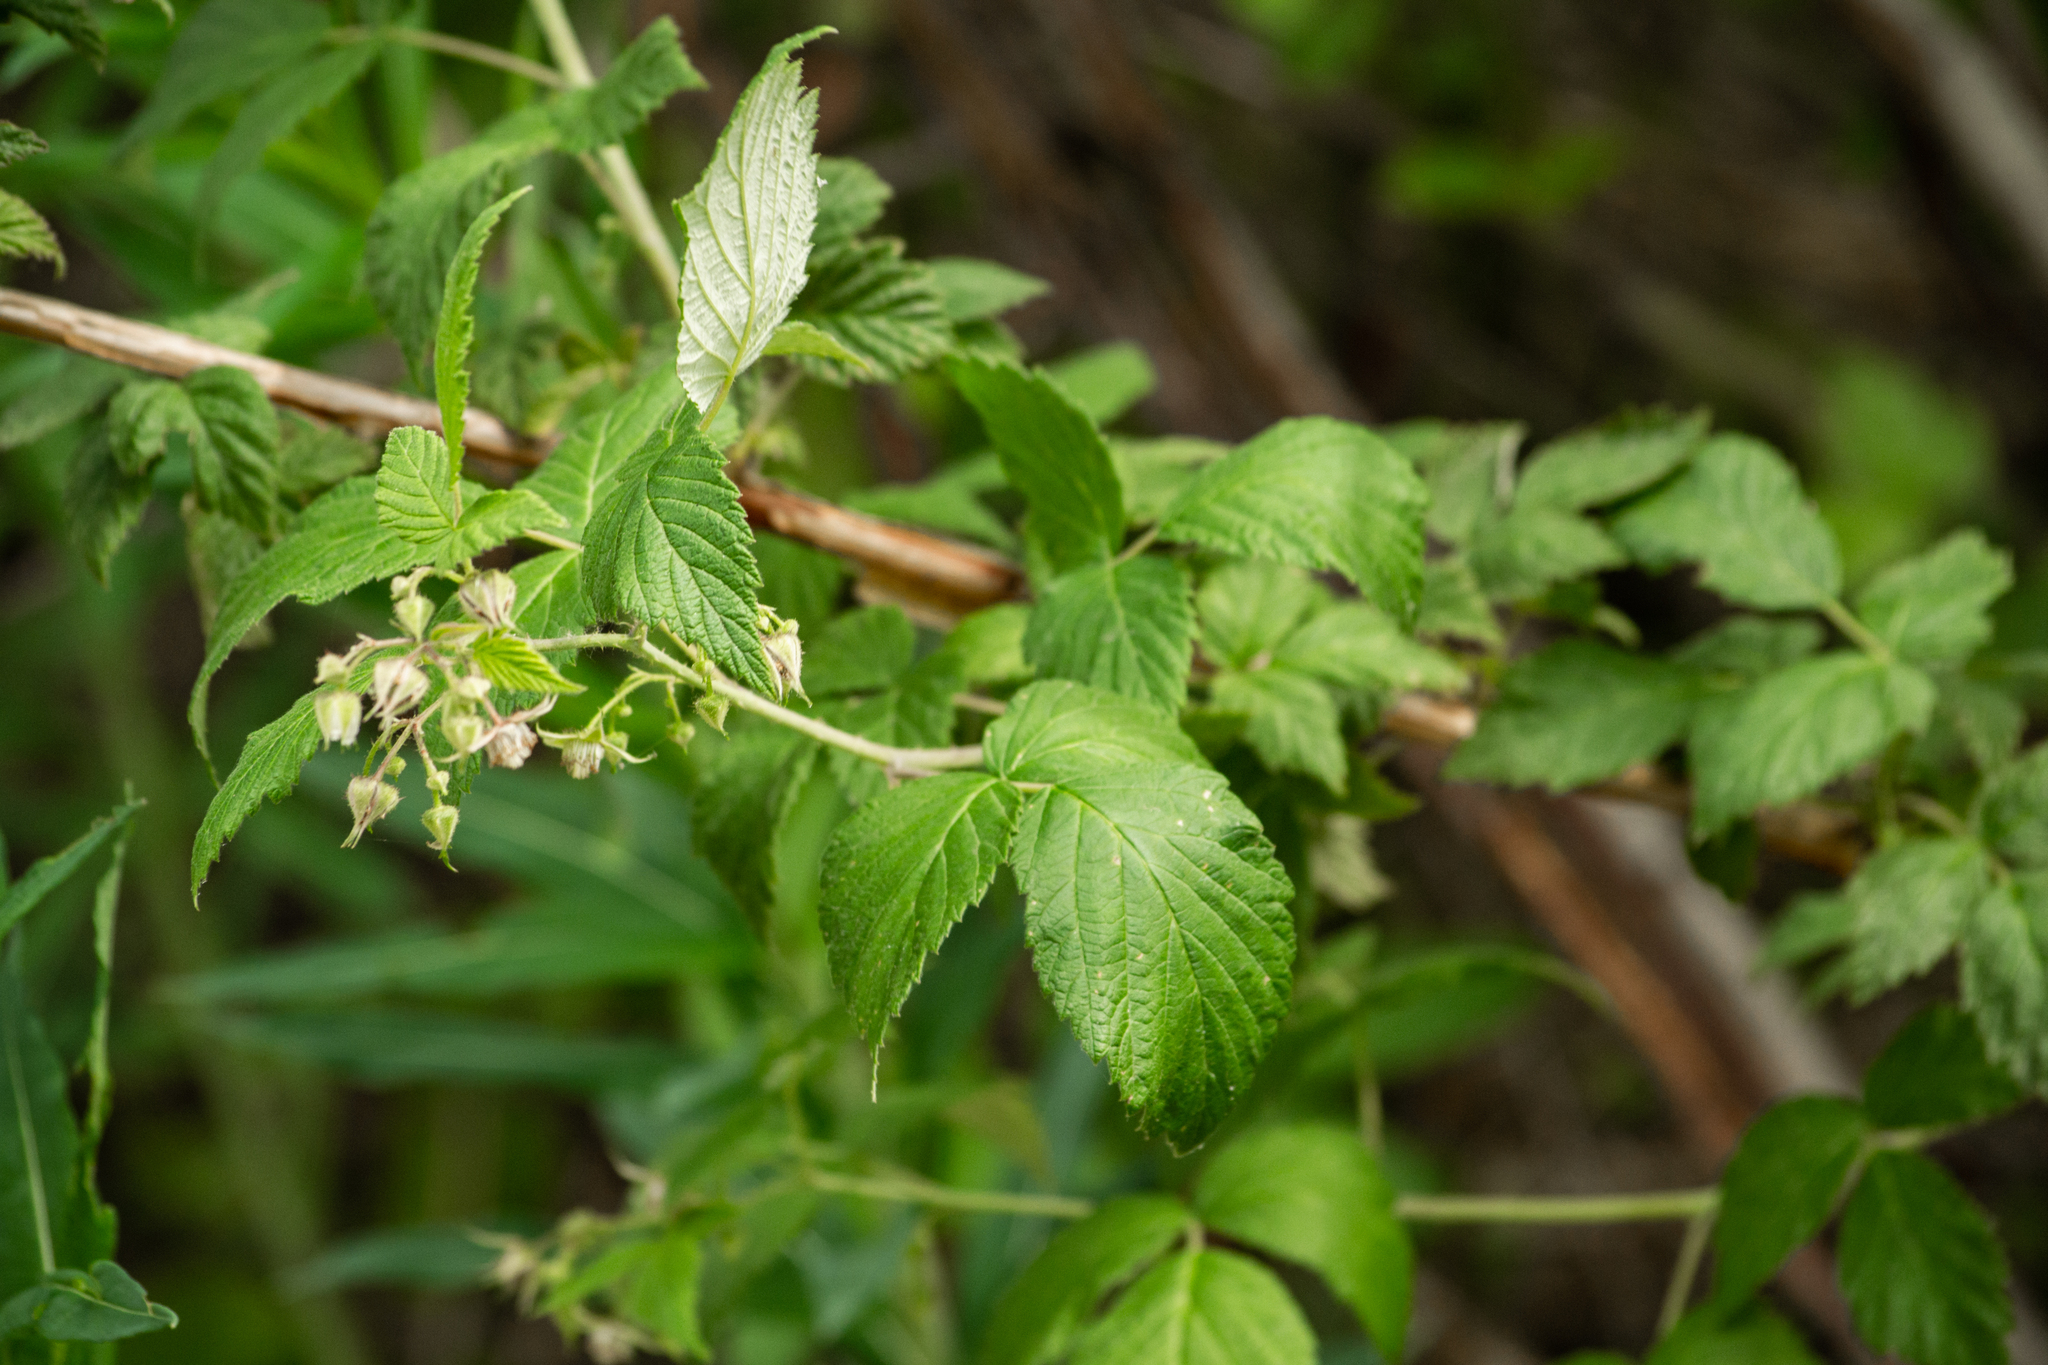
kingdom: Plantae
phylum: Tracheophyta
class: Magnoliopsida
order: Rosales
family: Rosaceae
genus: Rubus
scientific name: Rubus idaeus
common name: Raspberry
